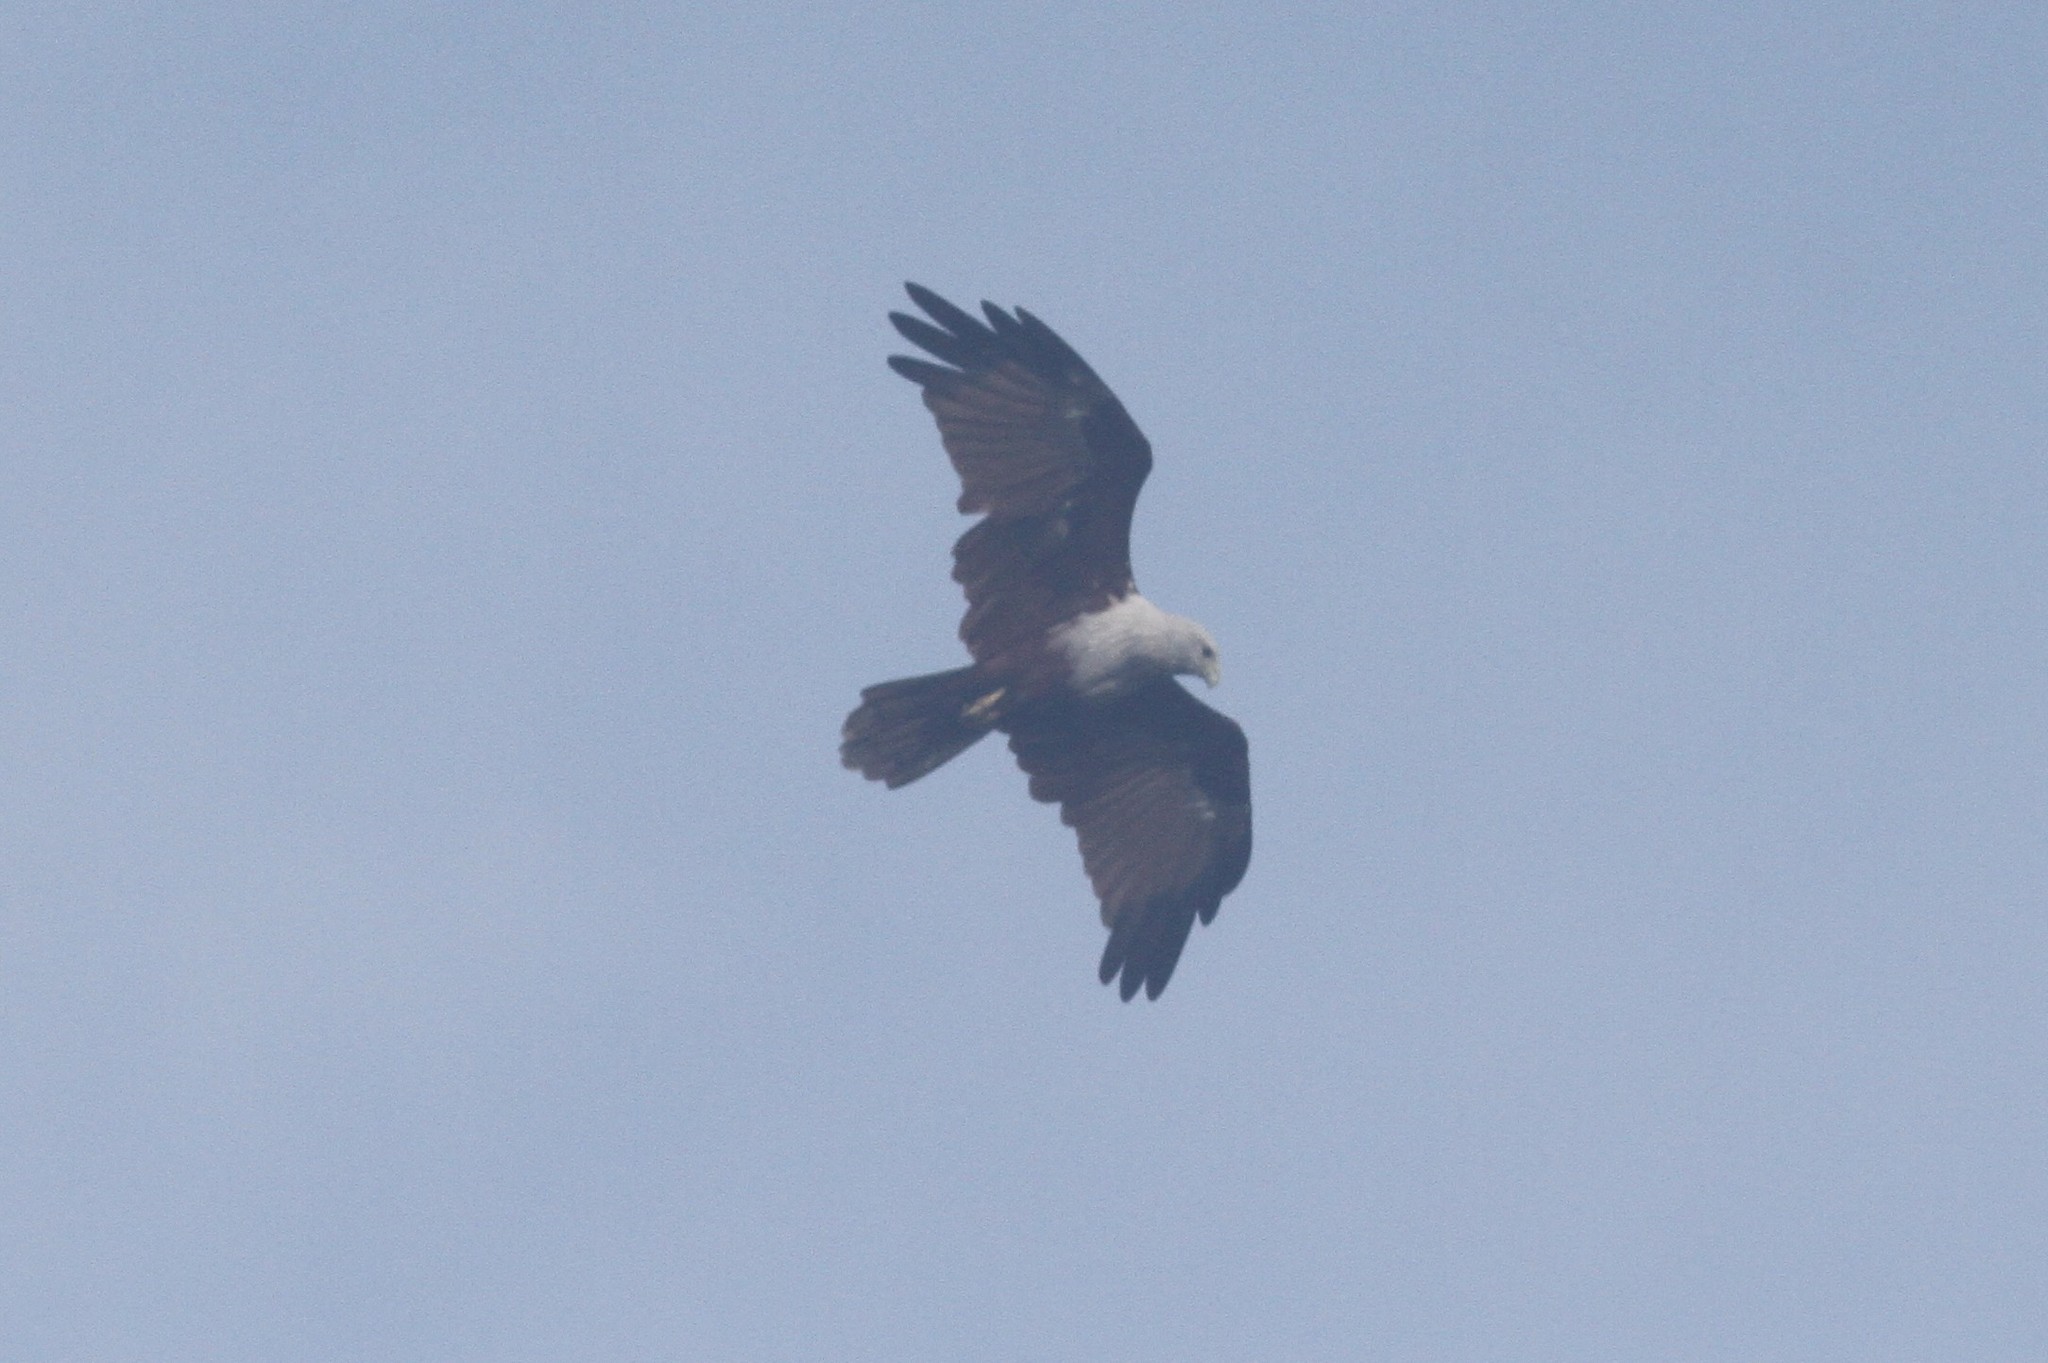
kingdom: Animalia
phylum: Chordata
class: Aves
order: Accipitriformes
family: Accipitridae
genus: Haliastur
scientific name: Haliastur indus
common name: Brahminy kite
